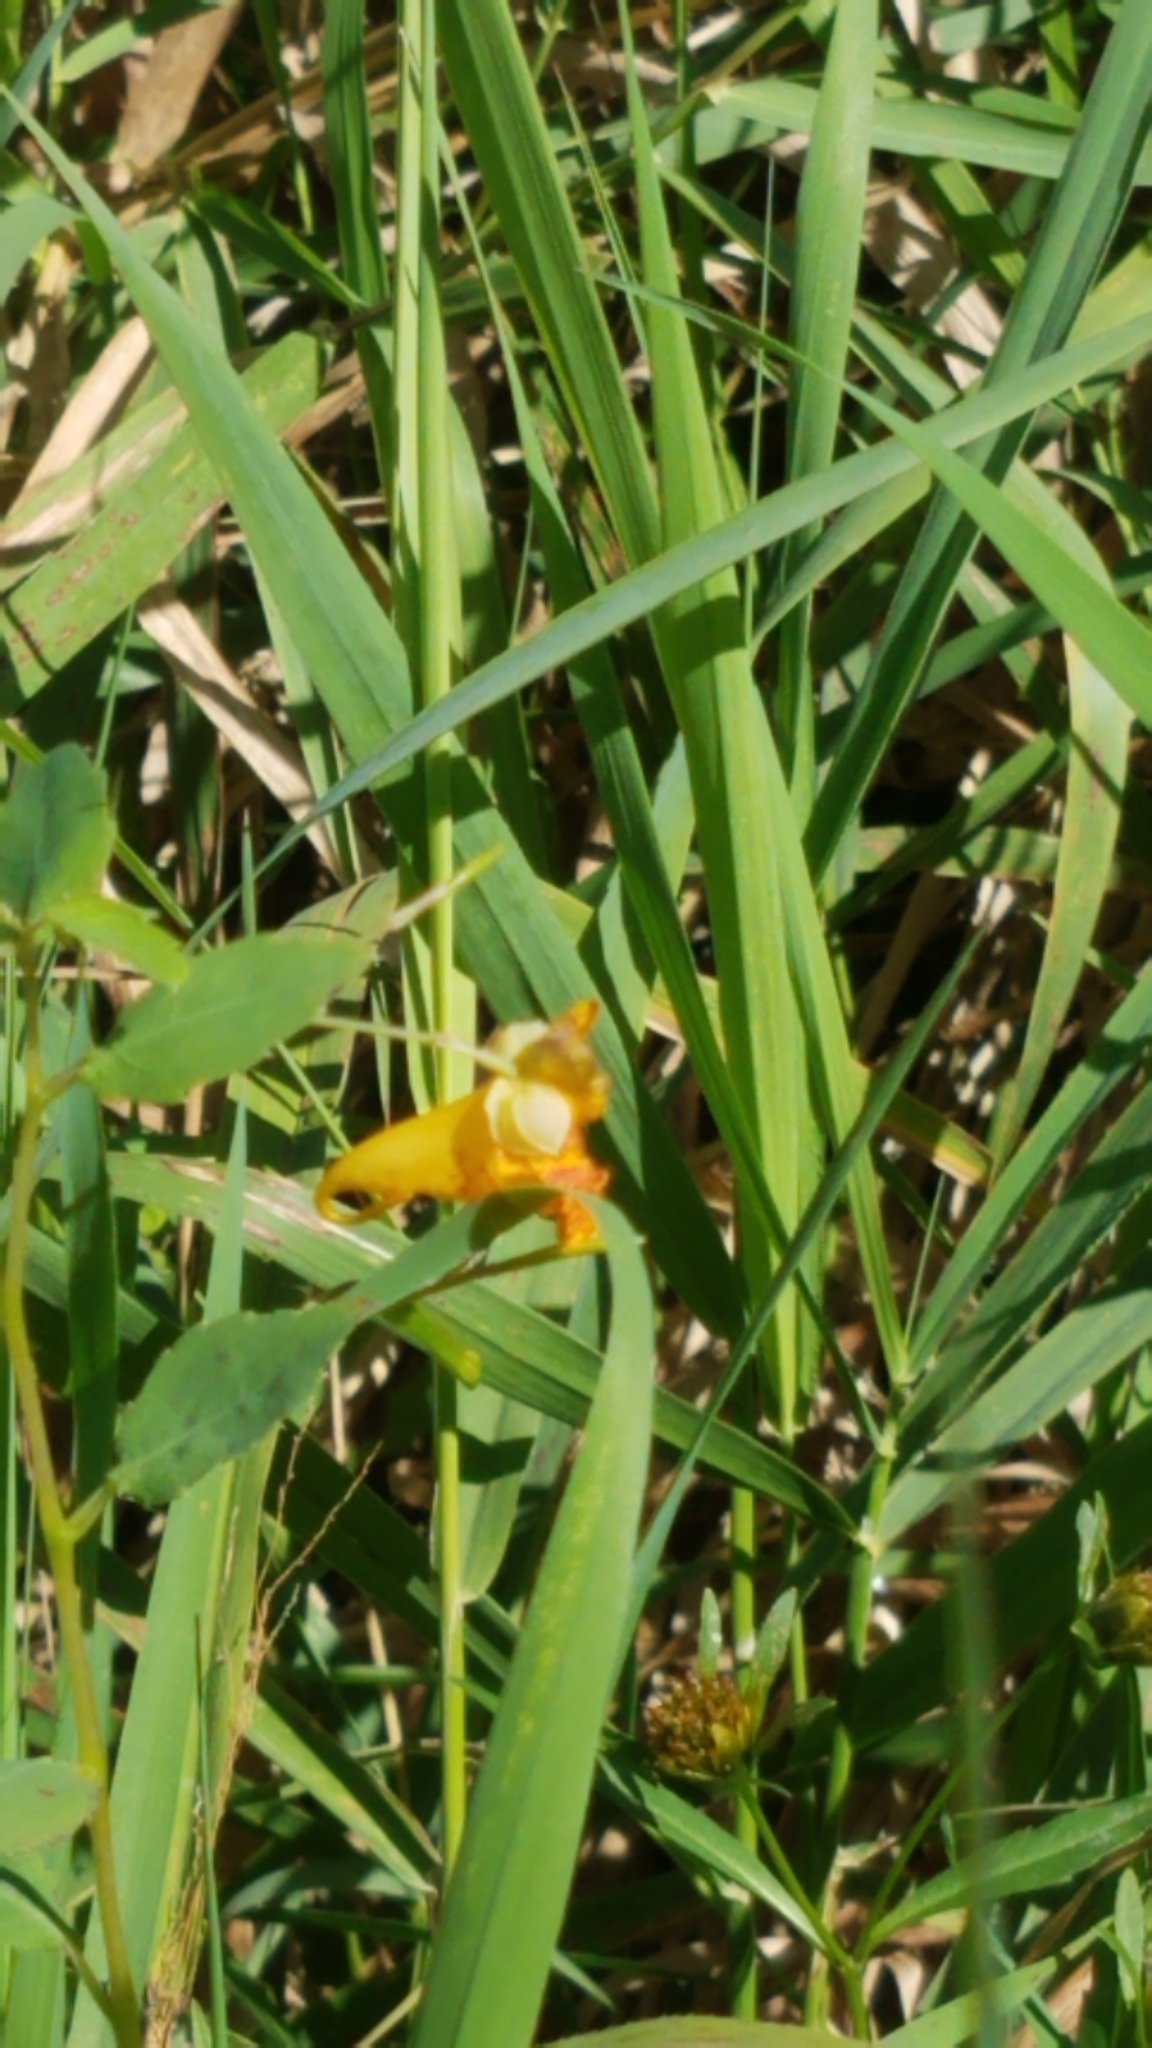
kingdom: Plantae
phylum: Tracheophyta
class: Magnoliopsida
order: Ericales
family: Balsaminaceae
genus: Impatiens
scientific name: Impatiens capensis
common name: Orange balsam
